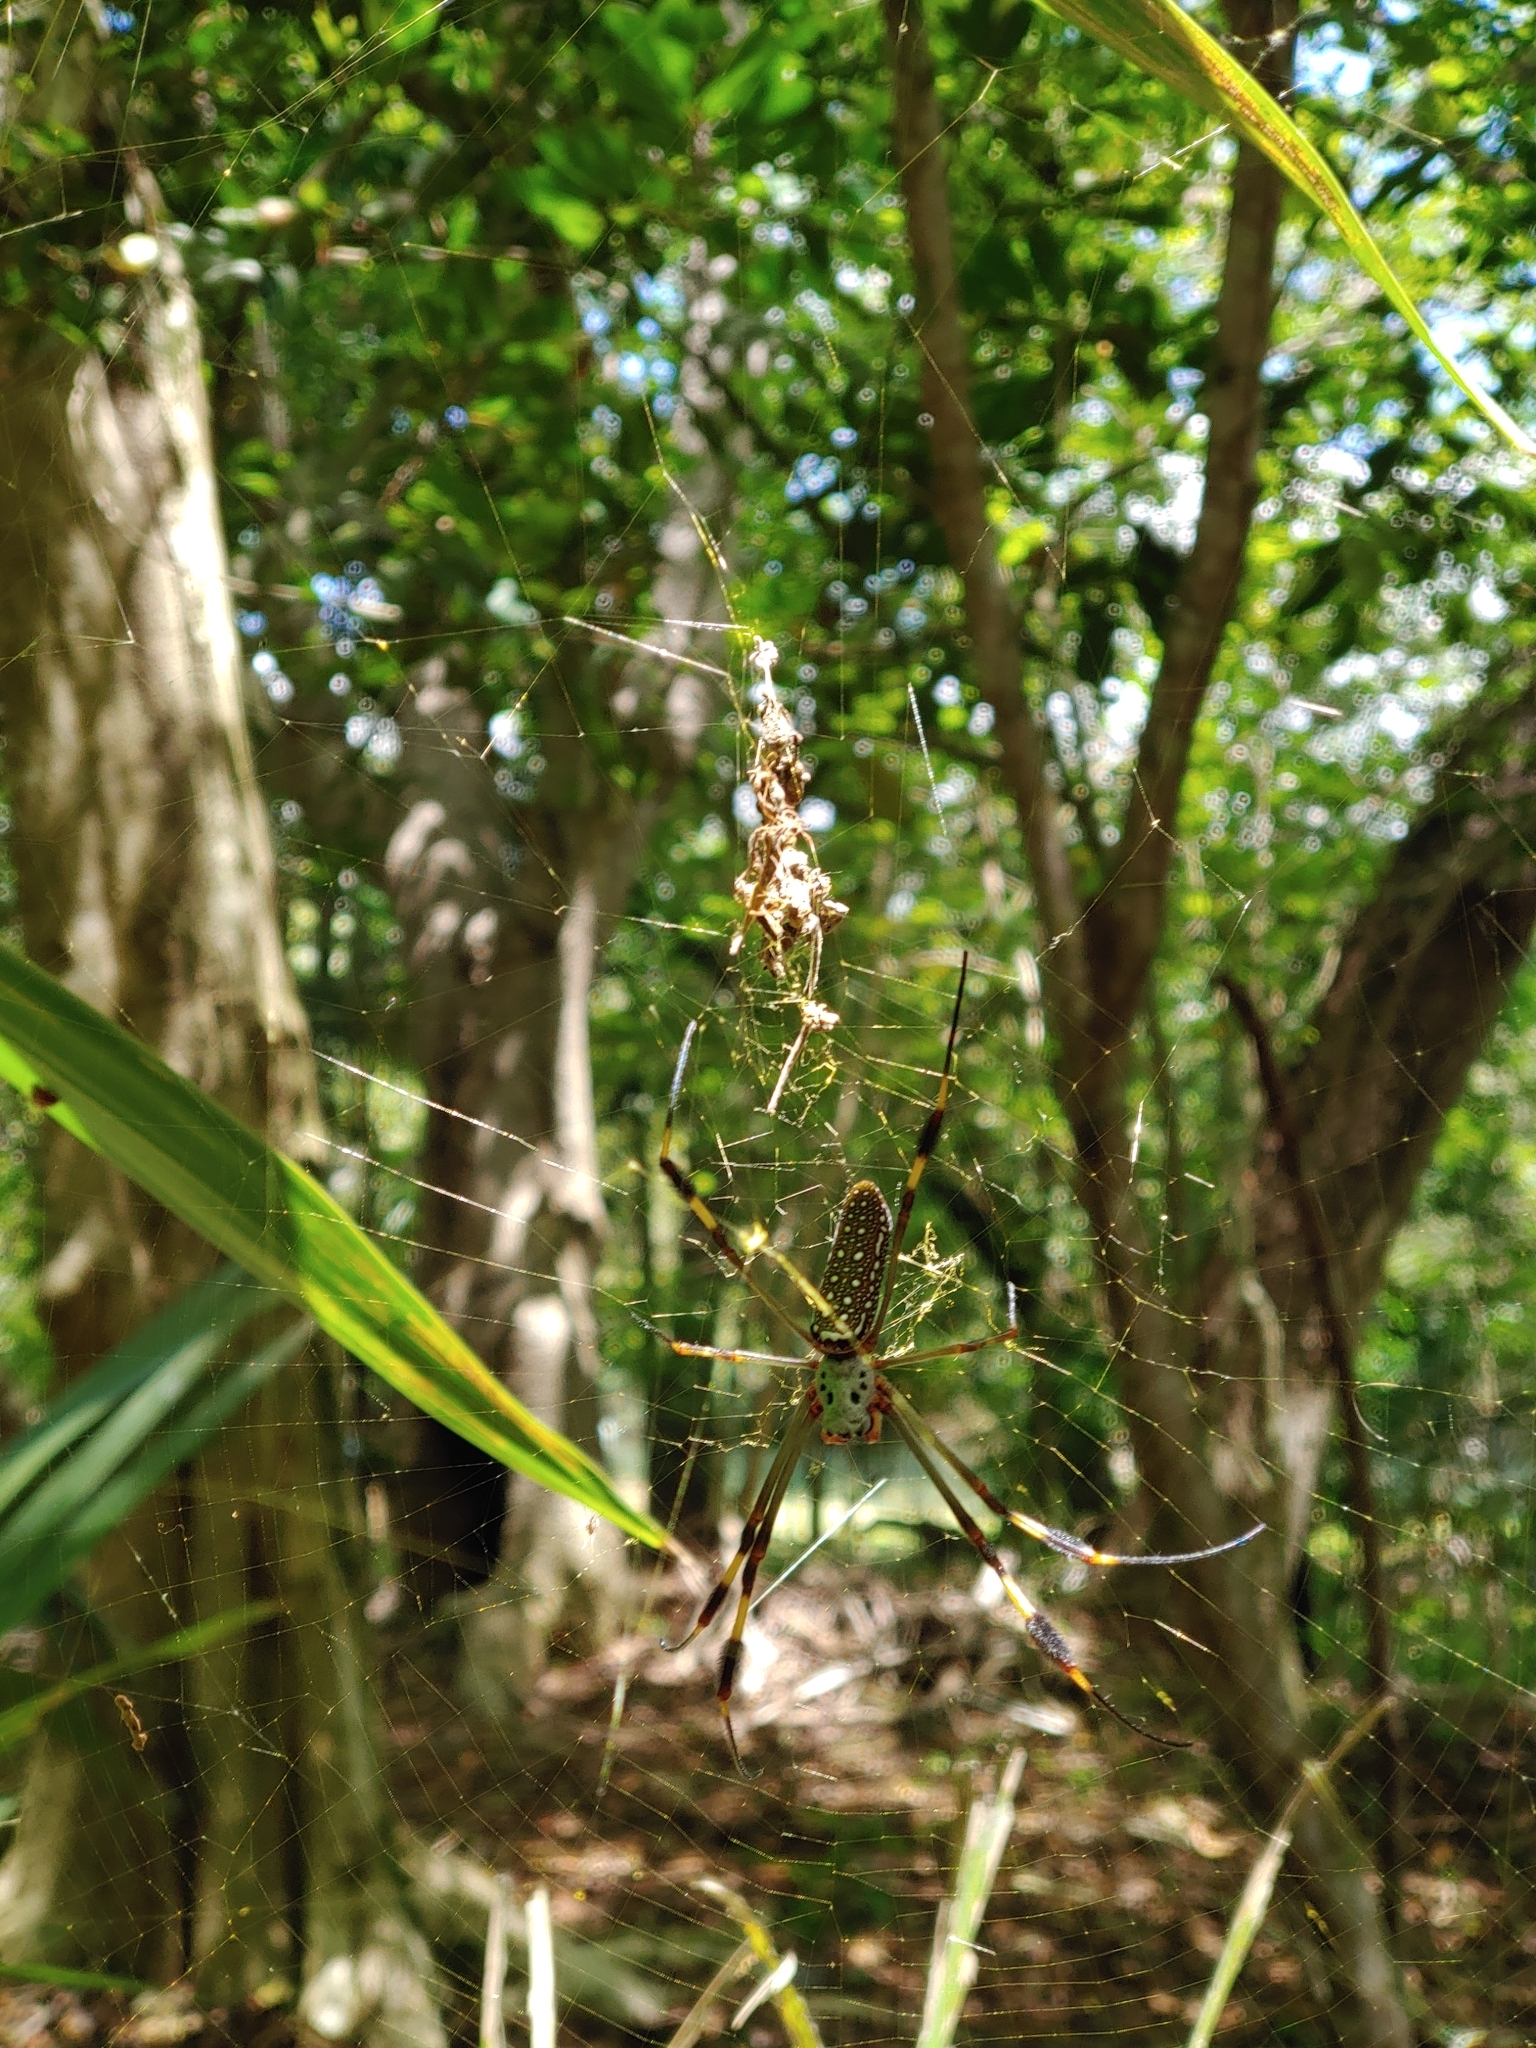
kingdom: Animalia
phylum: Arthropoda
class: Arachnida
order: Araneae
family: Araneidae
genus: Trichonephila
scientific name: Trichonephila clavipes
